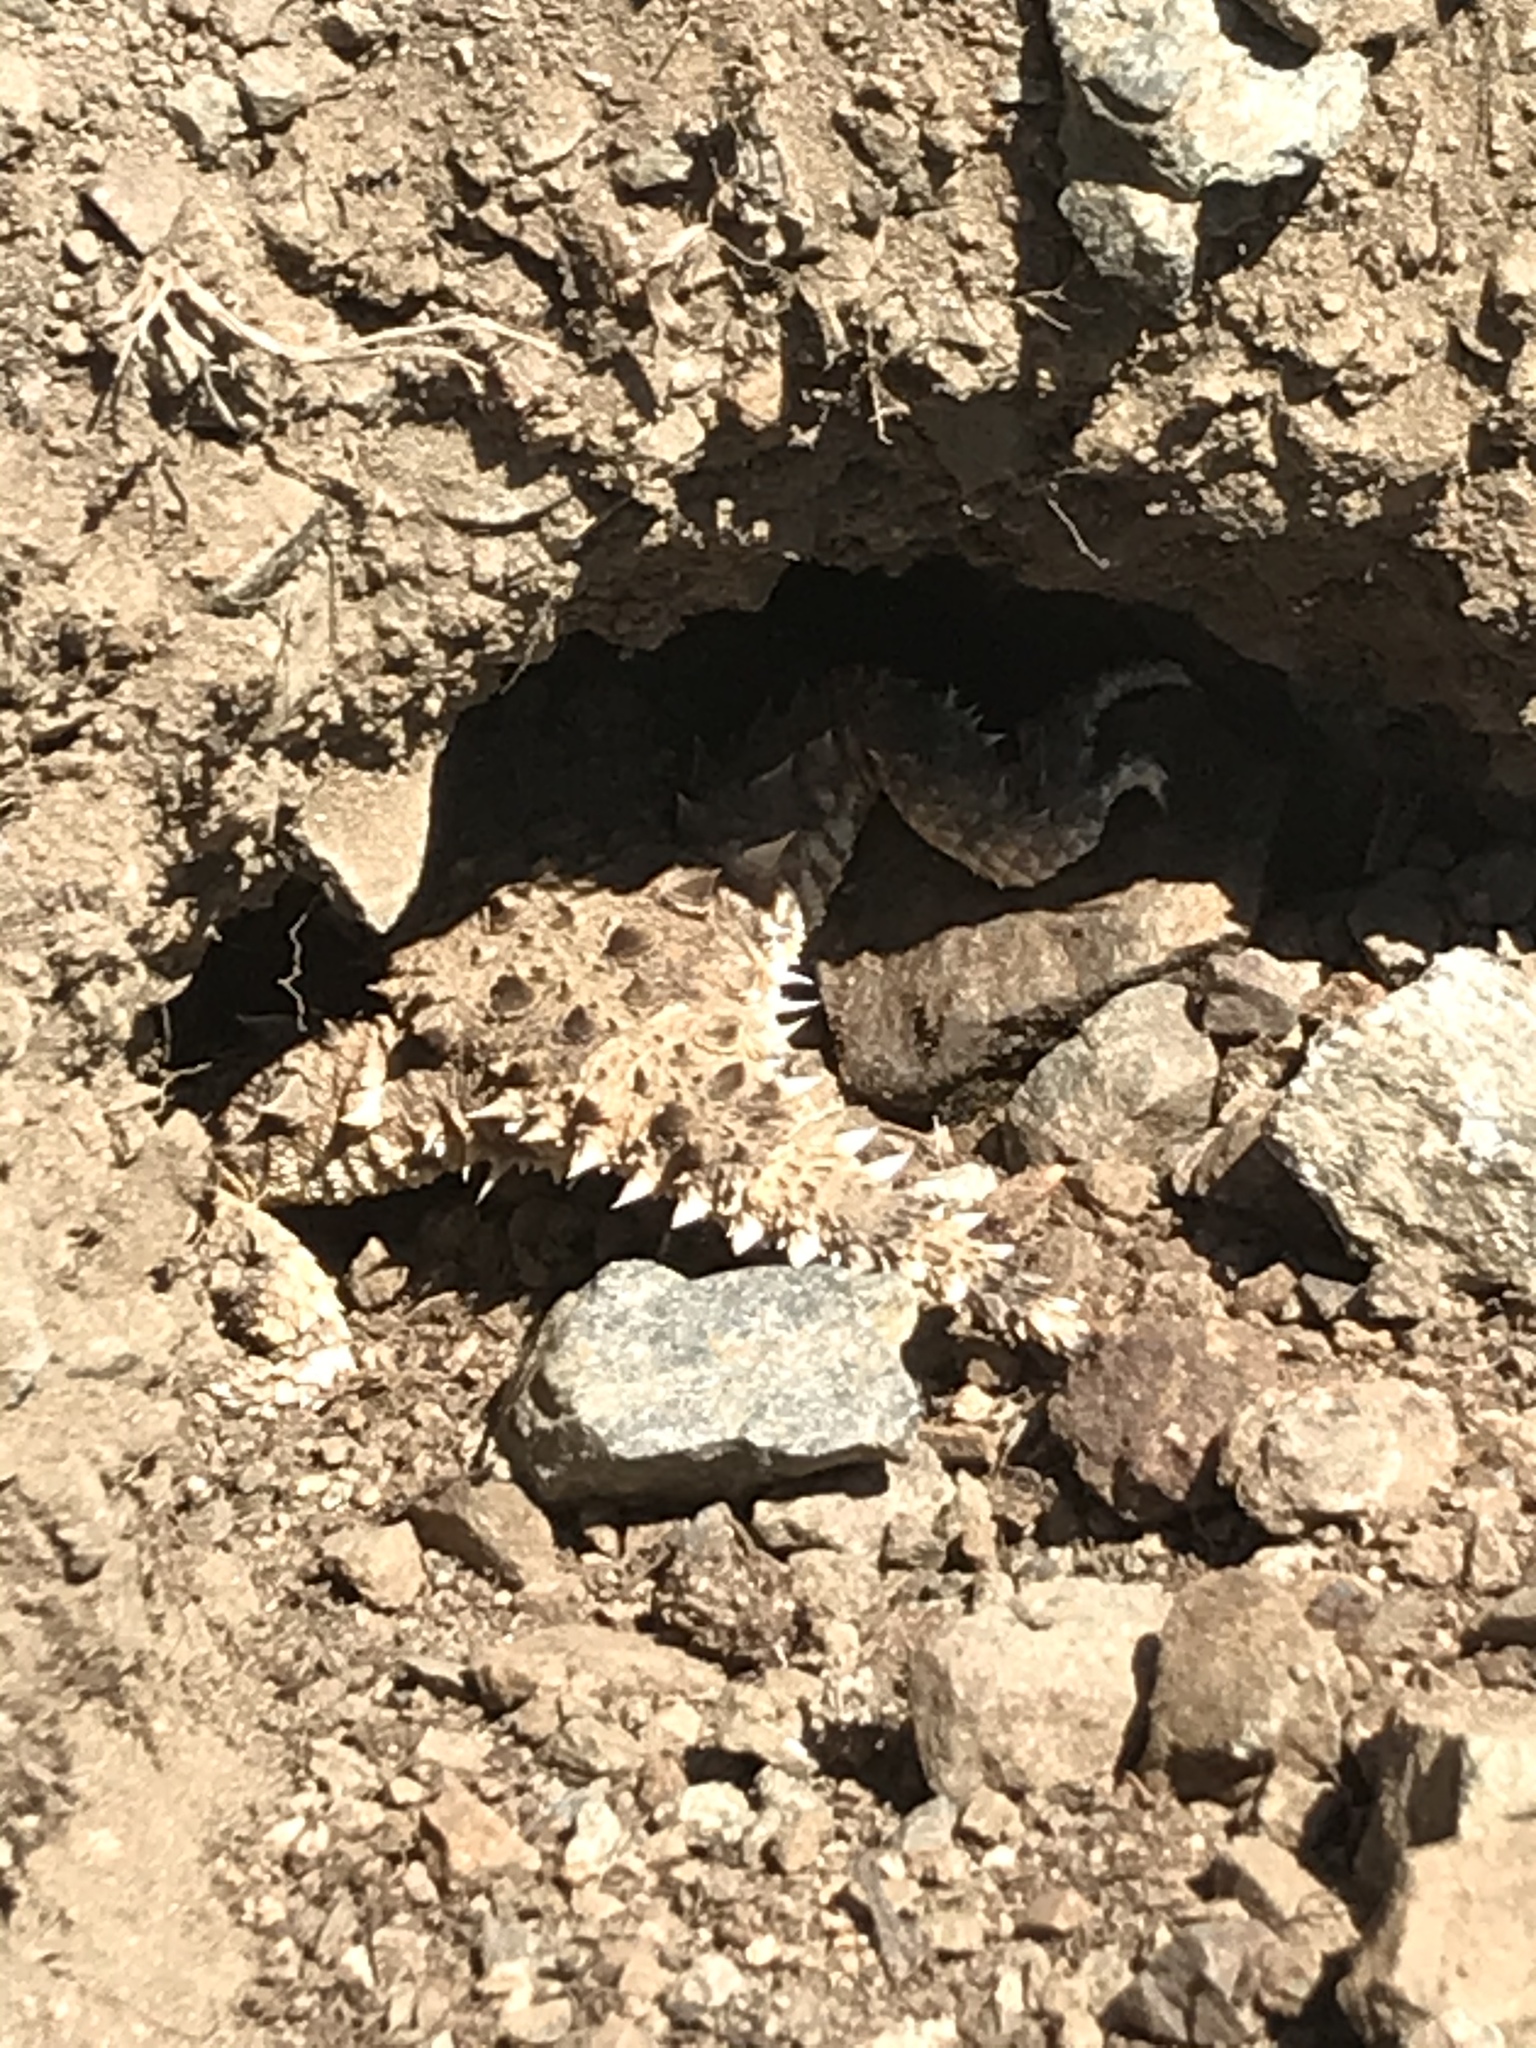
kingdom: Animalia
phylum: Chordata
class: Squamata
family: Phrynosomatidae
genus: Phrynosoma
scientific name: Phrynosoma blainvillii
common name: San diego horned lizard
